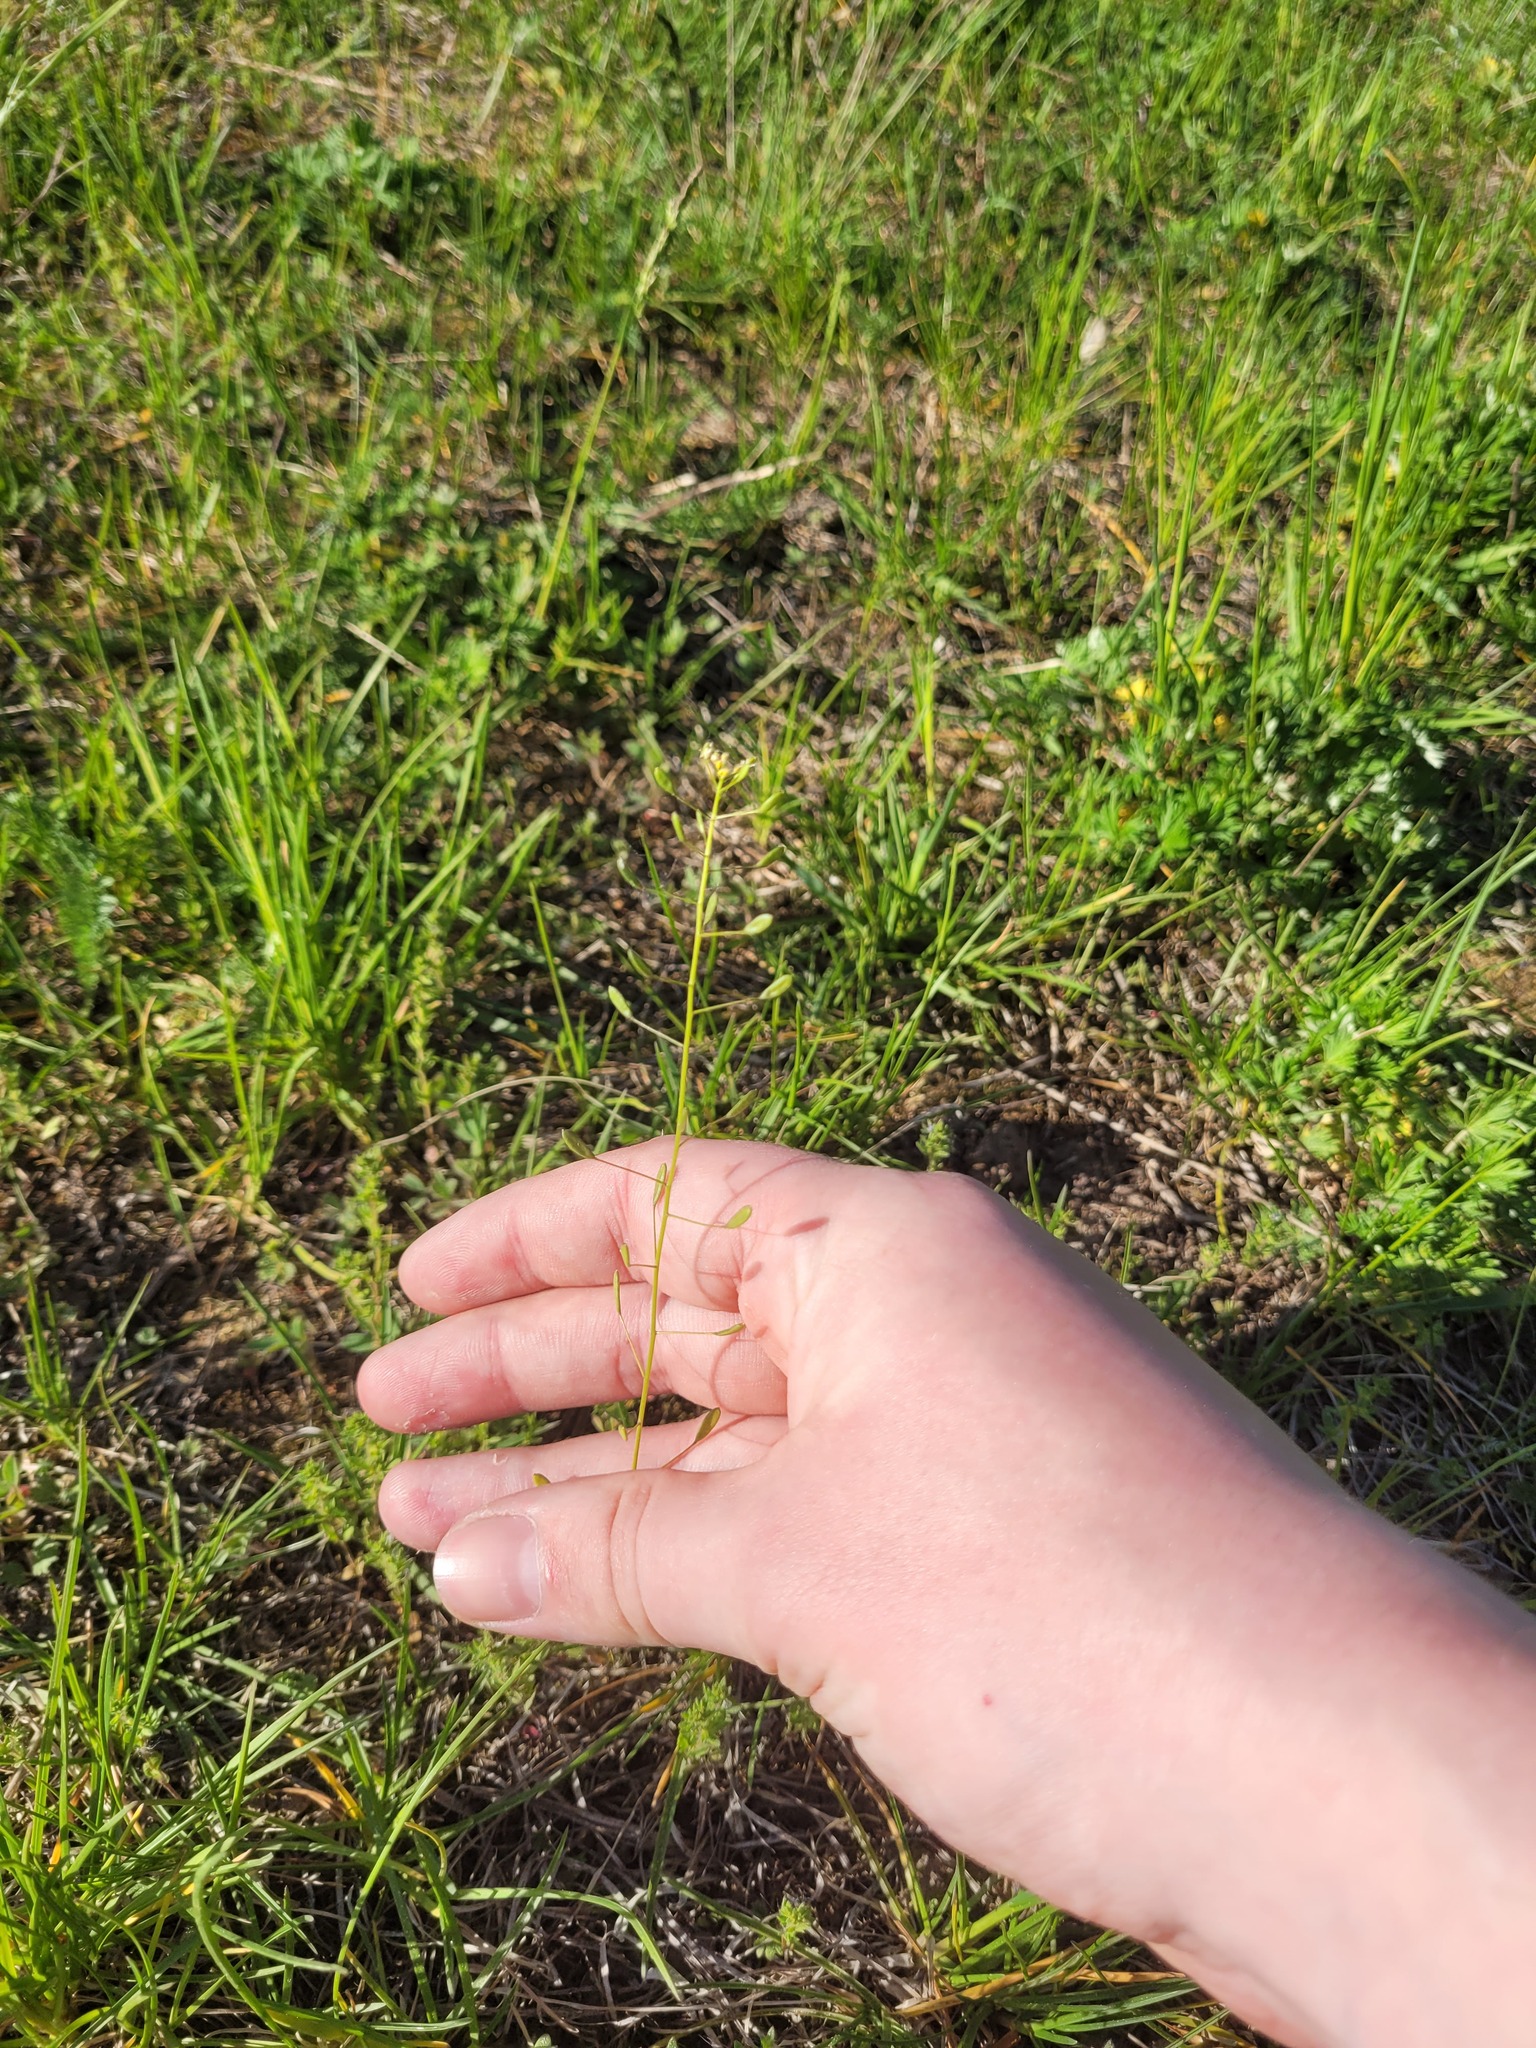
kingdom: Plantae
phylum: Tracheophyta
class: Magnoliopsida
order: Brassicales
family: Brassicaceae
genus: Draba
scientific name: Draba nemorosa
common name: Wood whitlow-grass
